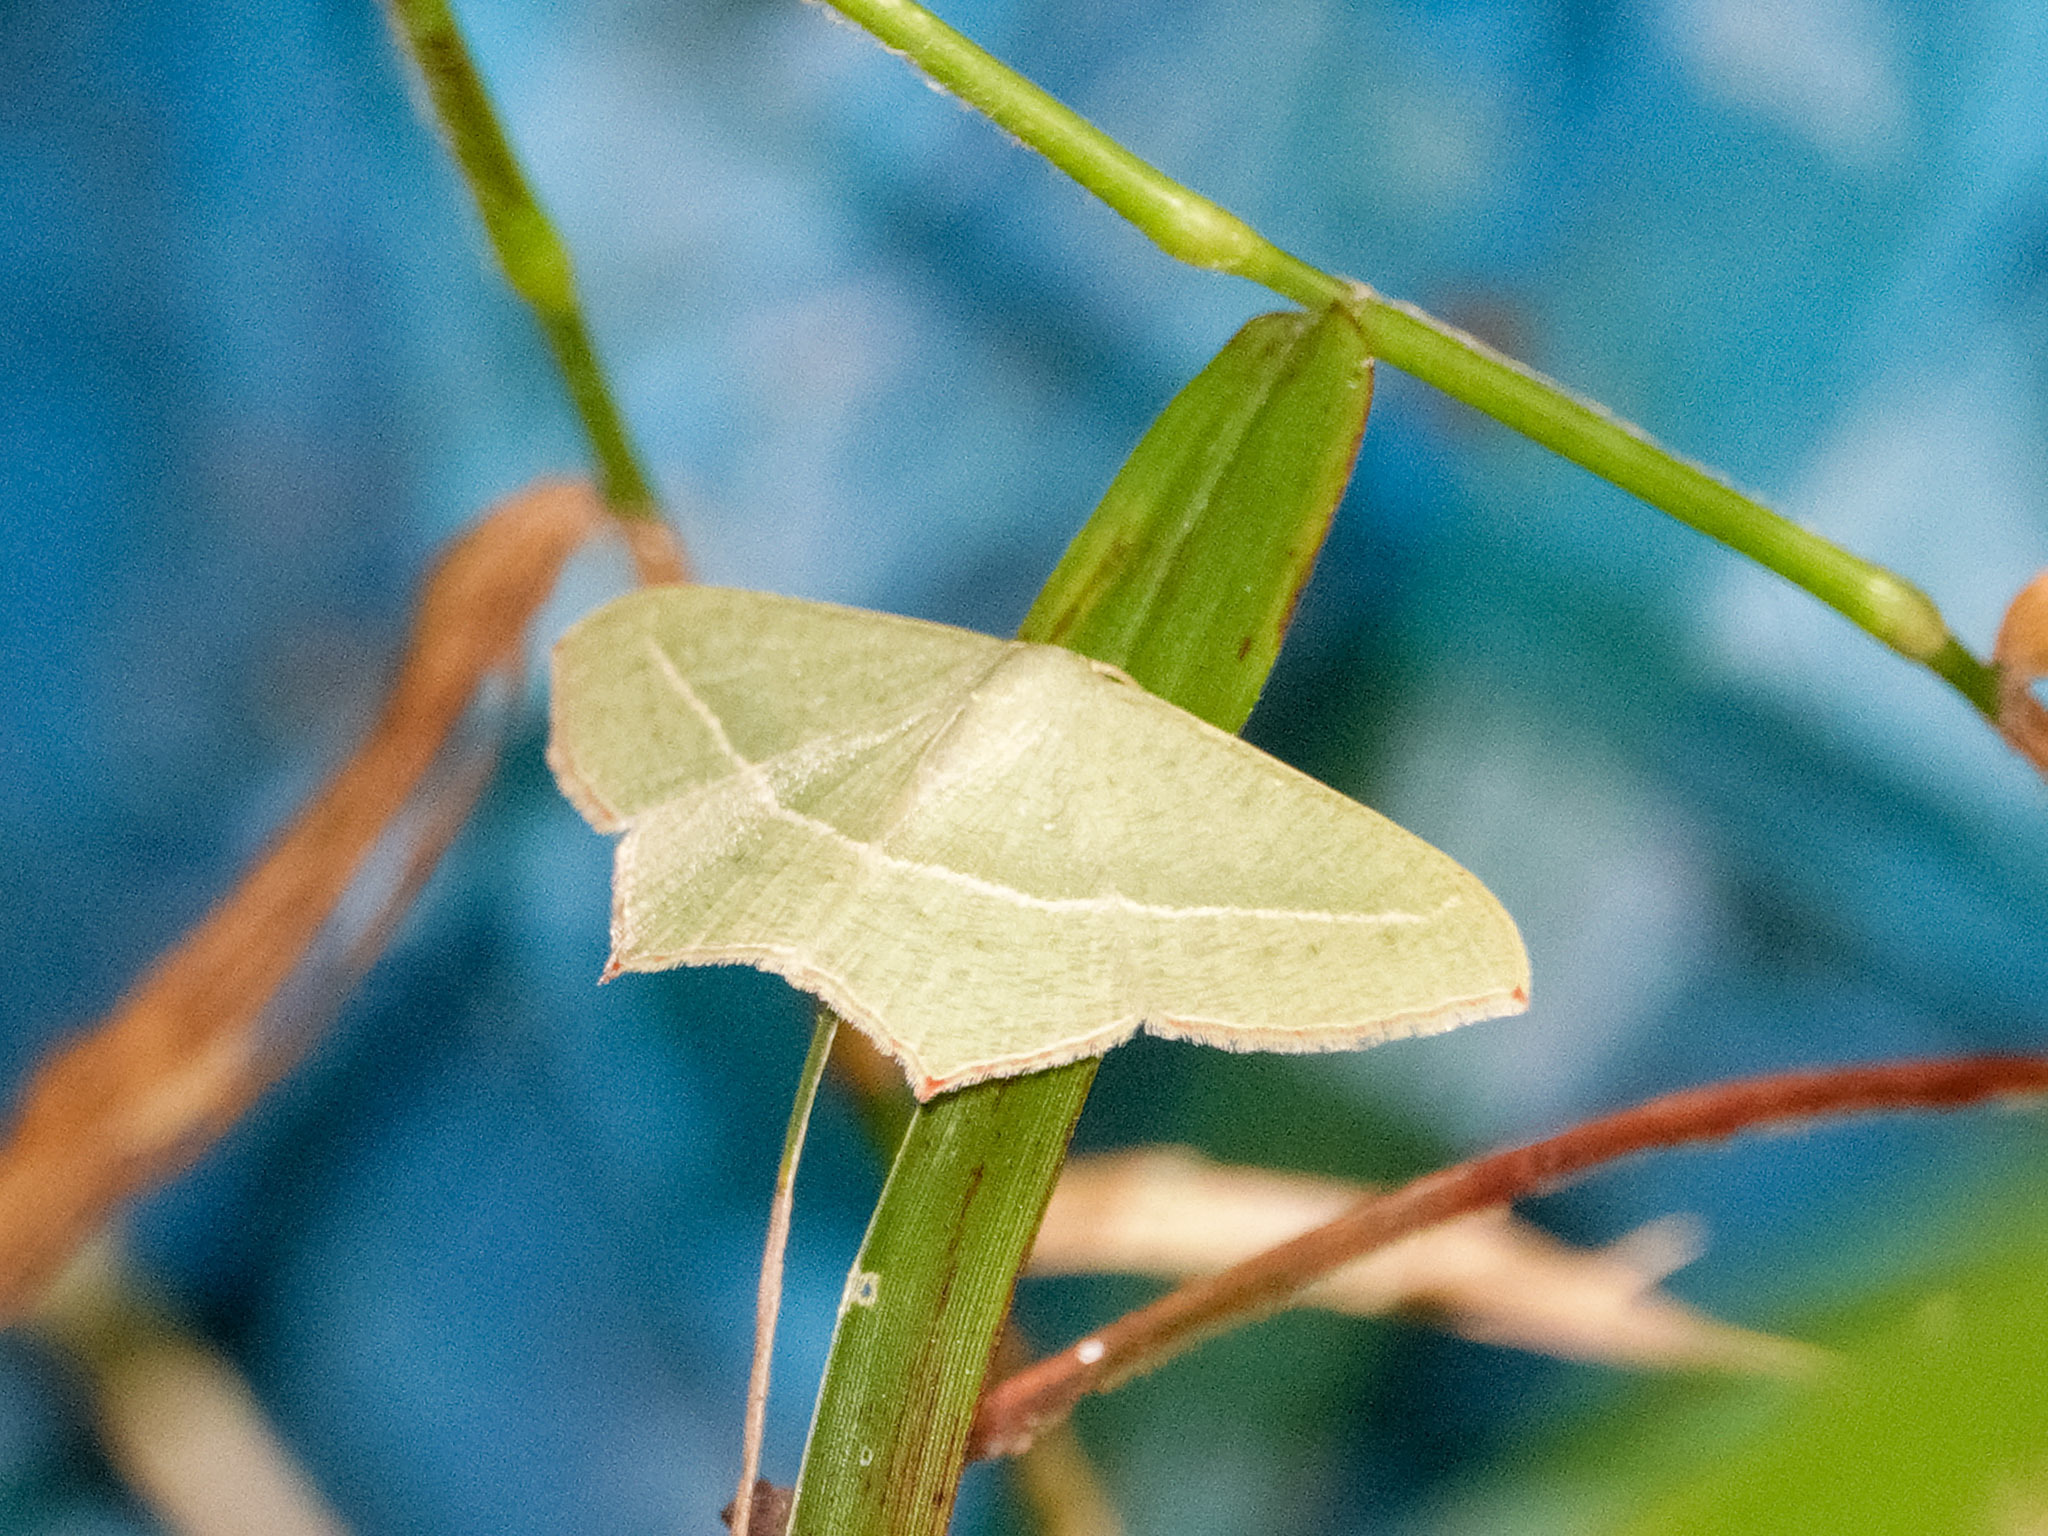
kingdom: Animalia
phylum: Arthropoda
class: Insecta
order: Lepidoptera
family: Geometridae
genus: Traminda
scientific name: Traminda mundissima
